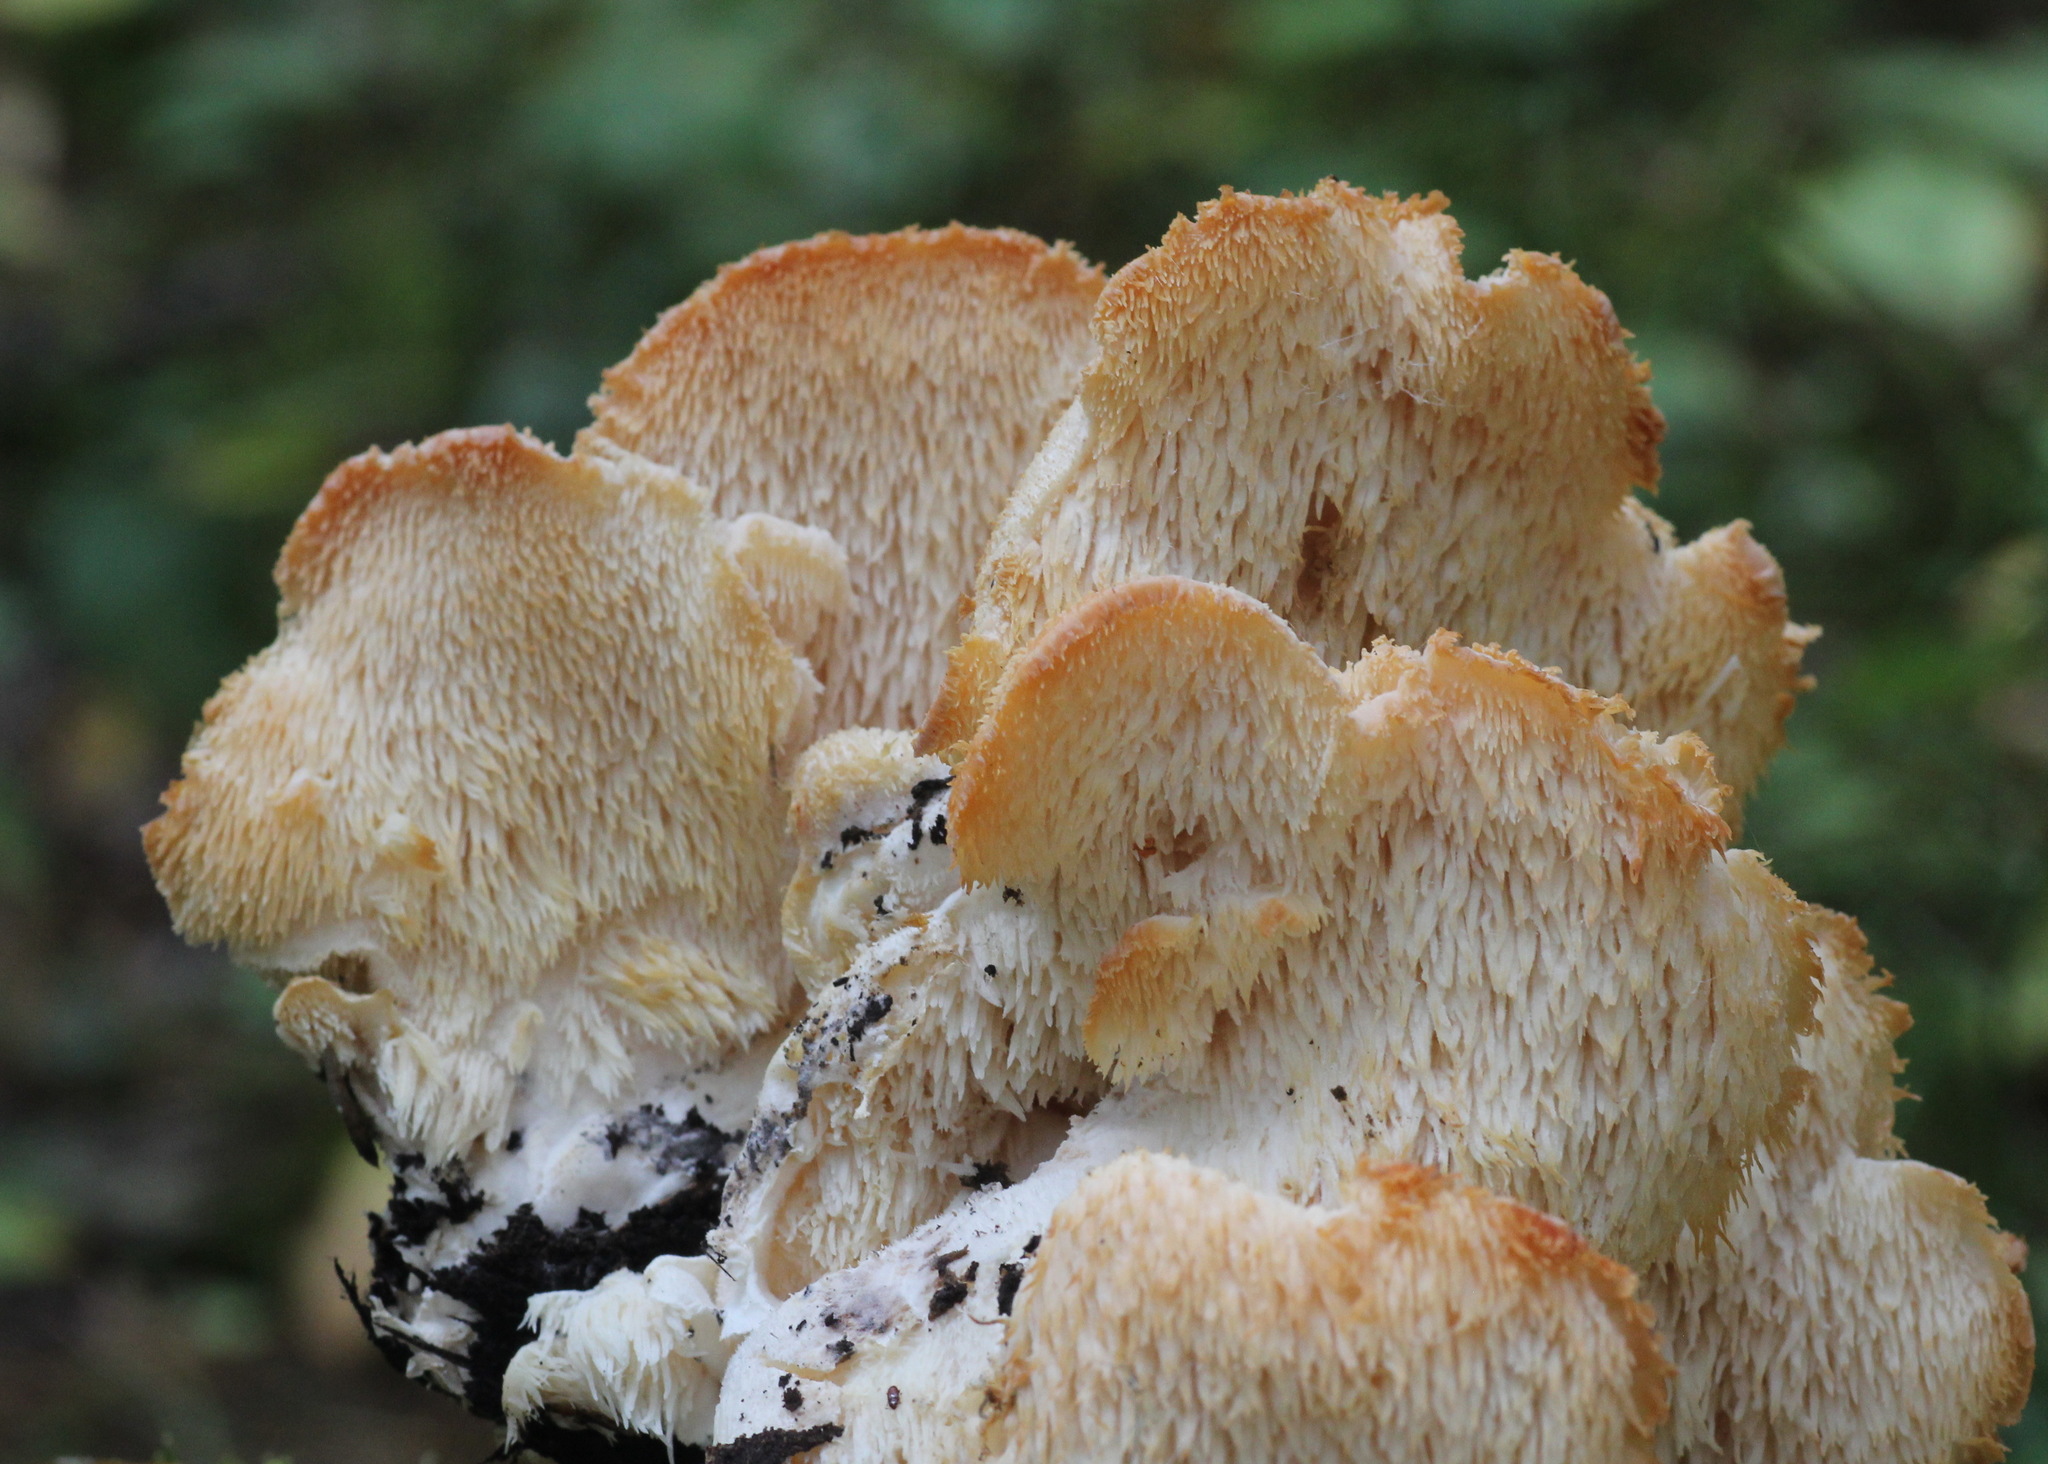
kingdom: Fungi
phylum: Basidiomycota
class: Agaricomycetes
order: Russulales
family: Hericiaceae
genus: Hericium
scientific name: Hericium cirrhatum
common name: Tiered tooth
